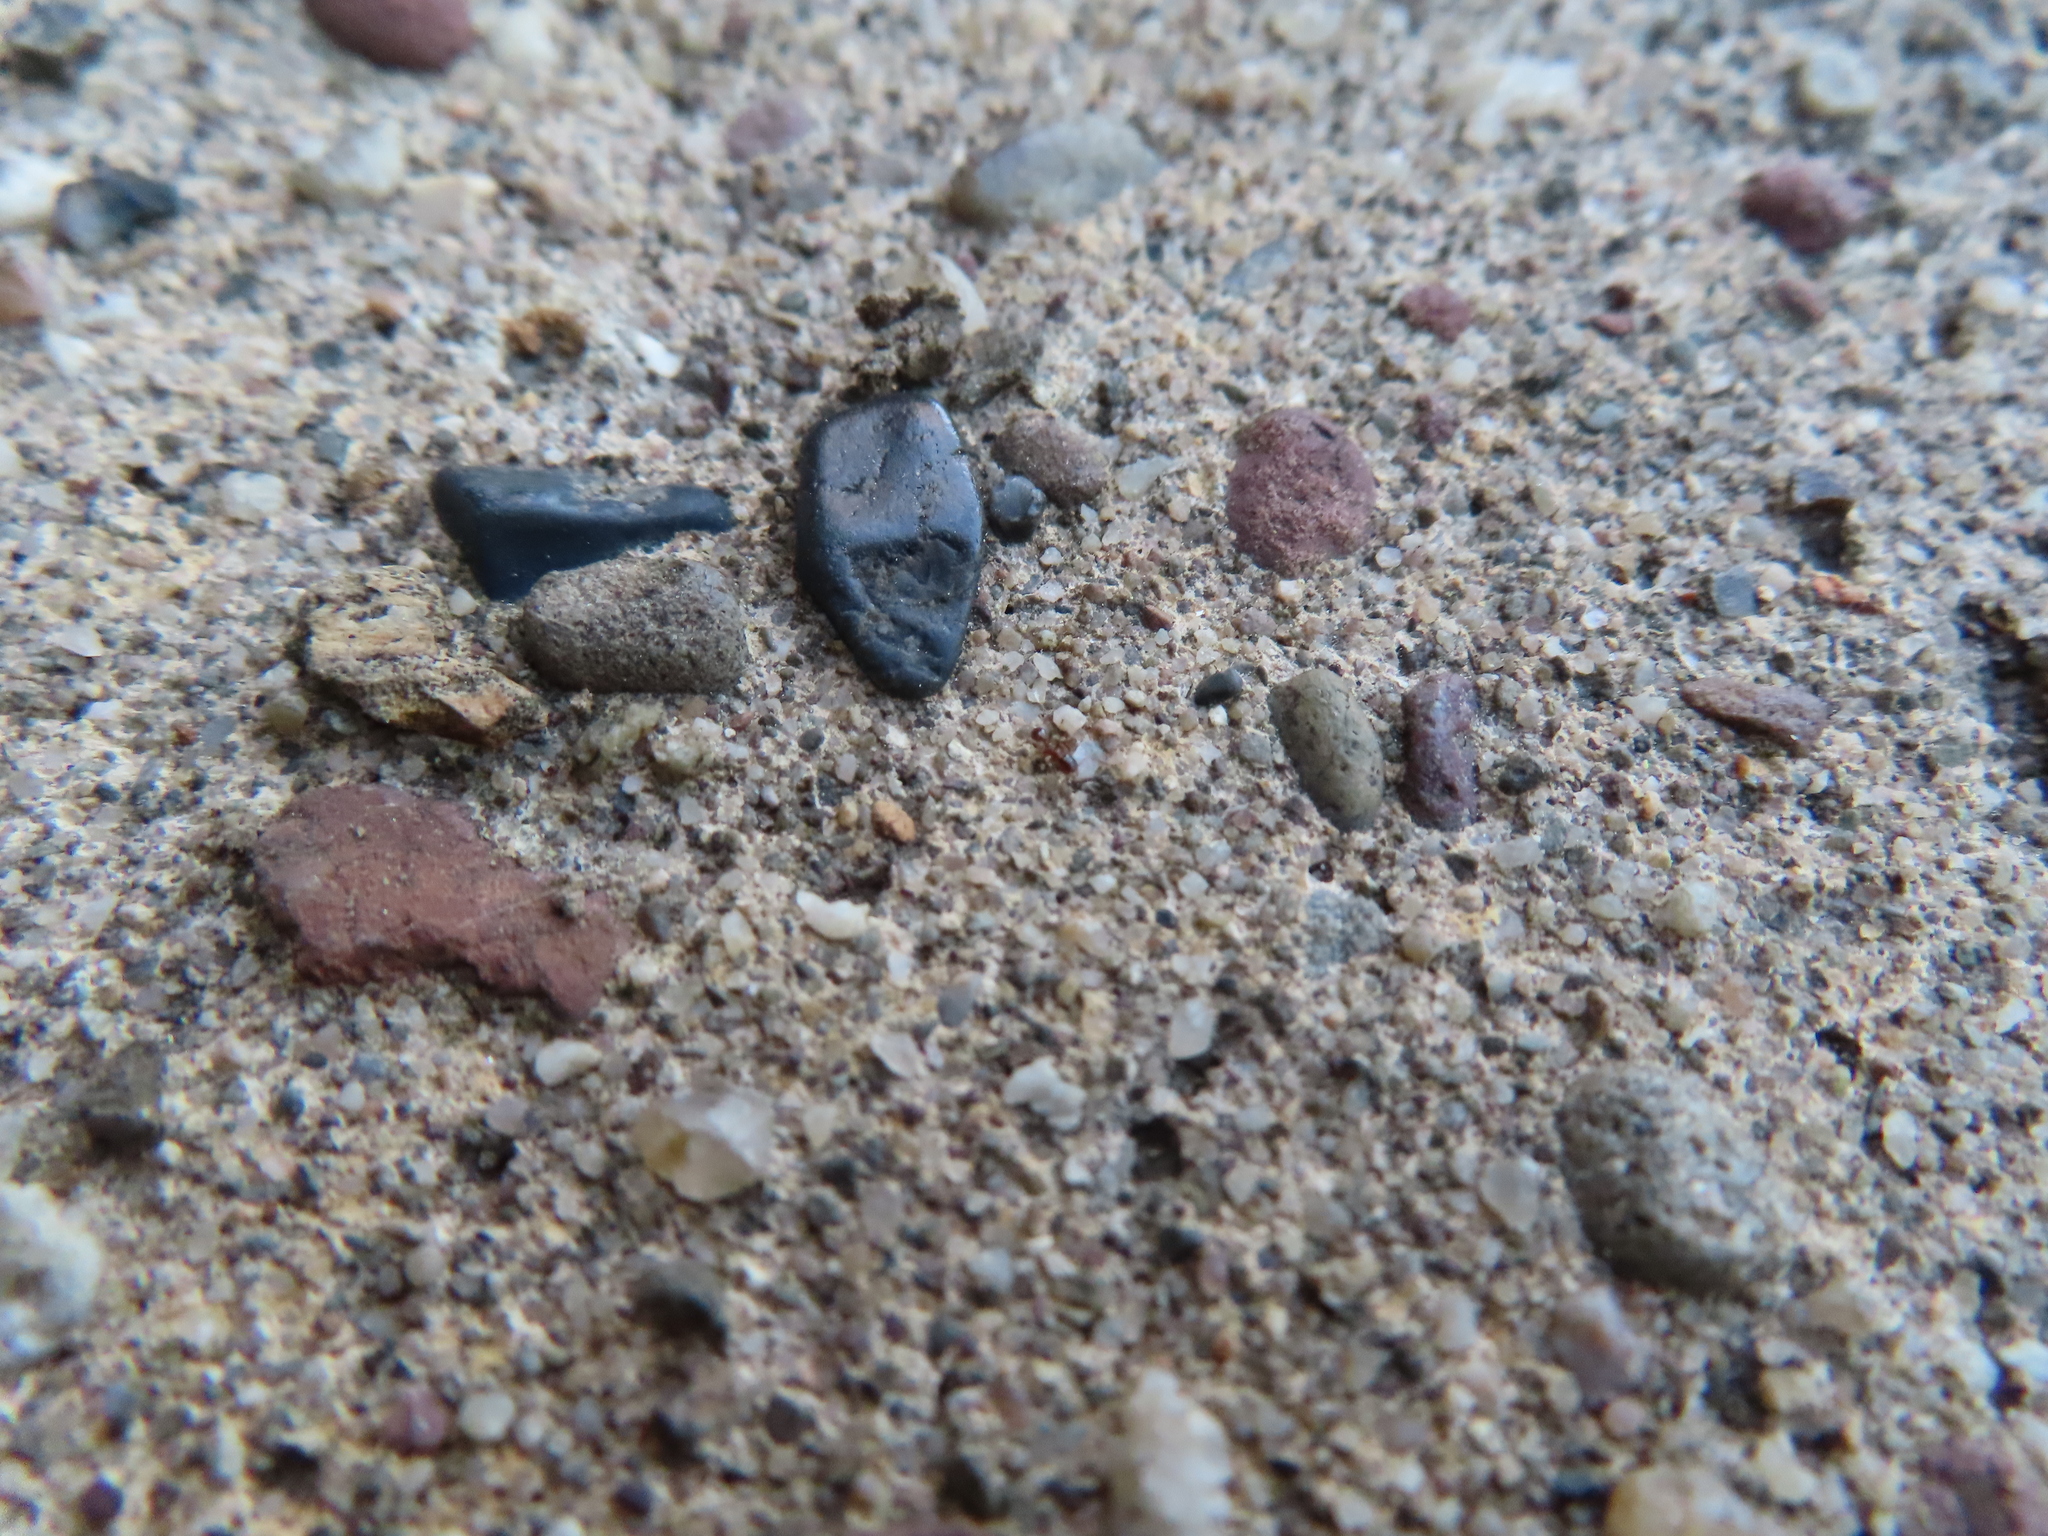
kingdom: Animalia
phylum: Arthropoda
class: Insecta
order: Hymenoptera
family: Formicidae
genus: Pheidole
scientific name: Pheidole bicarinata
